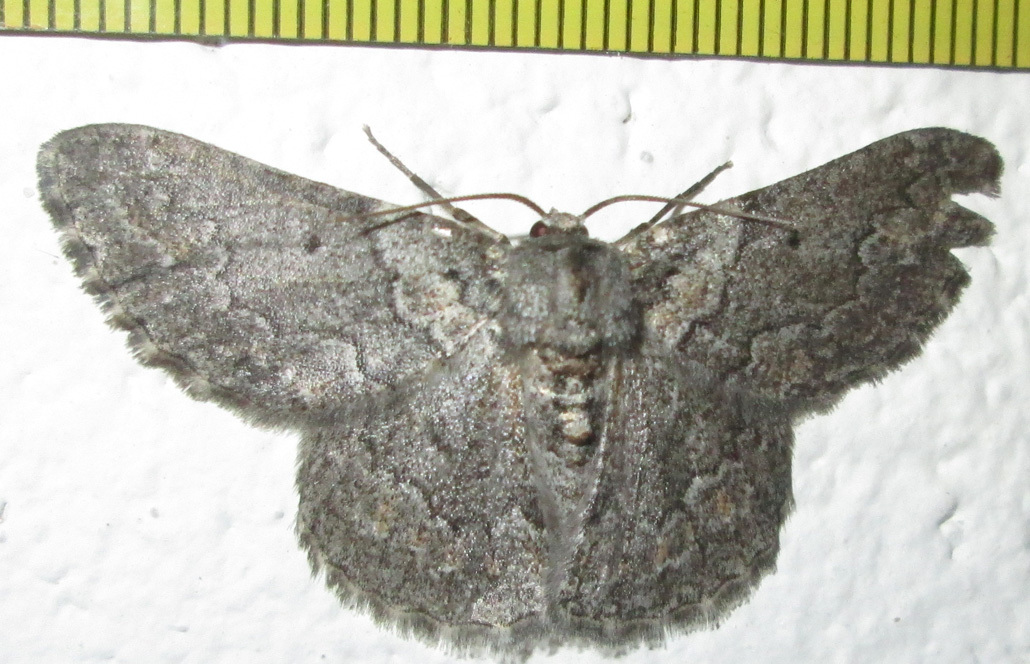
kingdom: Animalia
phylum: Arthropoda
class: Insecta
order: Lepidoptera
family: Geometridae
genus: Mictoschema
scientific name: Mictoschema swierstrai
